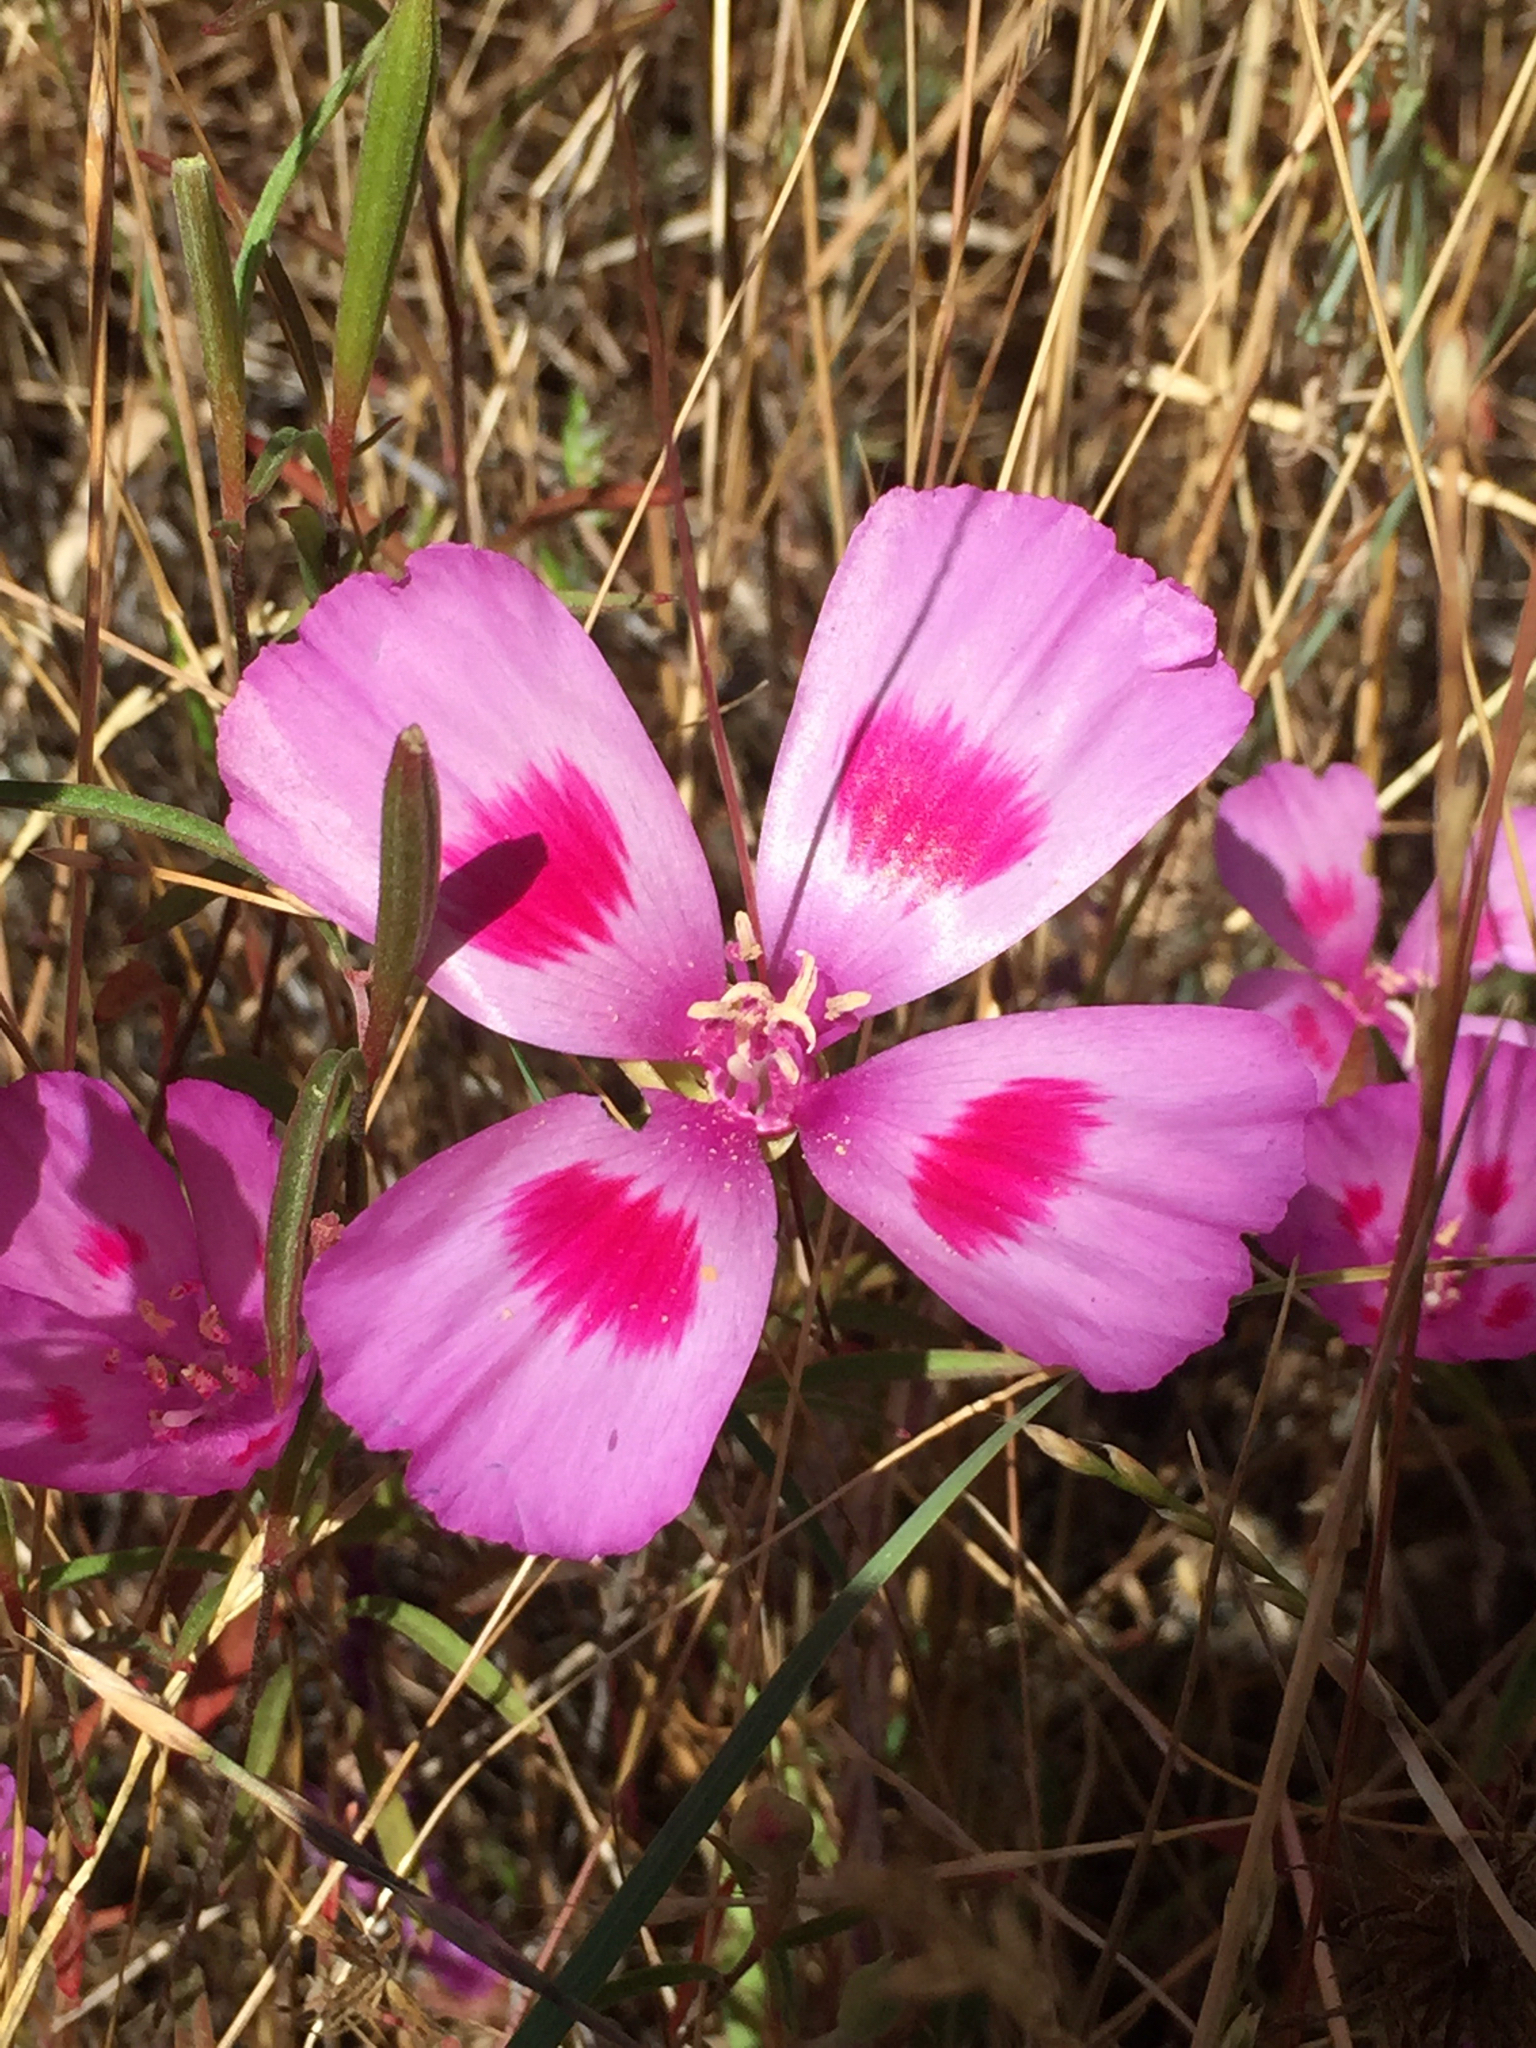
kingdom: Plantae
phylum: Tracheophyta
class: Magnoliopsida
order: Myrtales
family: Onagraceae
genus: Clarkia
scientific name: Clarkia amoena
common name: Godetia
